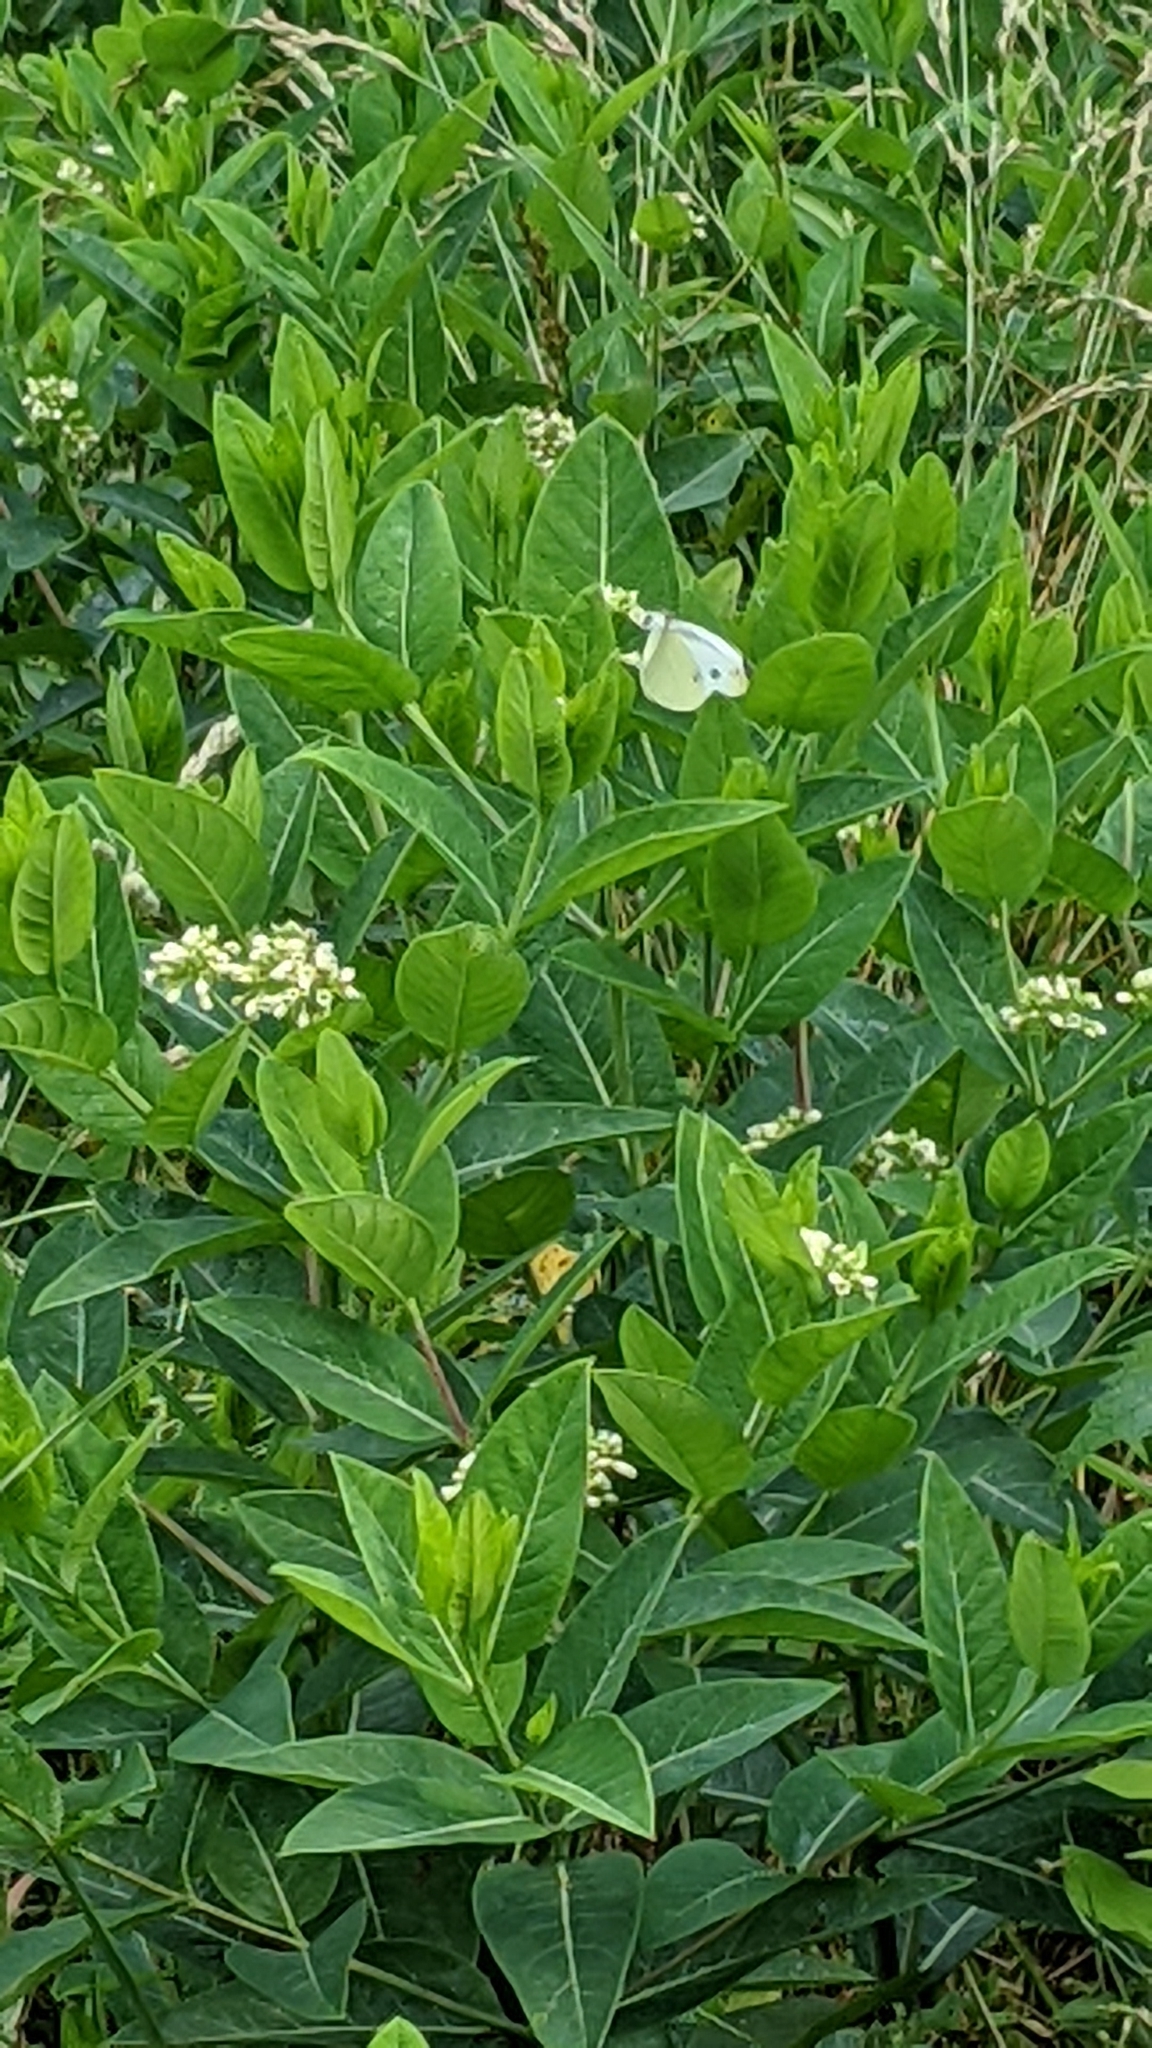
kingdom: Animalia
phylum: Arthropoda
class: Insecta
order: Lepidoptera
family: Pieridae
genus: Pieris
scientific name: Pieris rapae
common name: Small white
